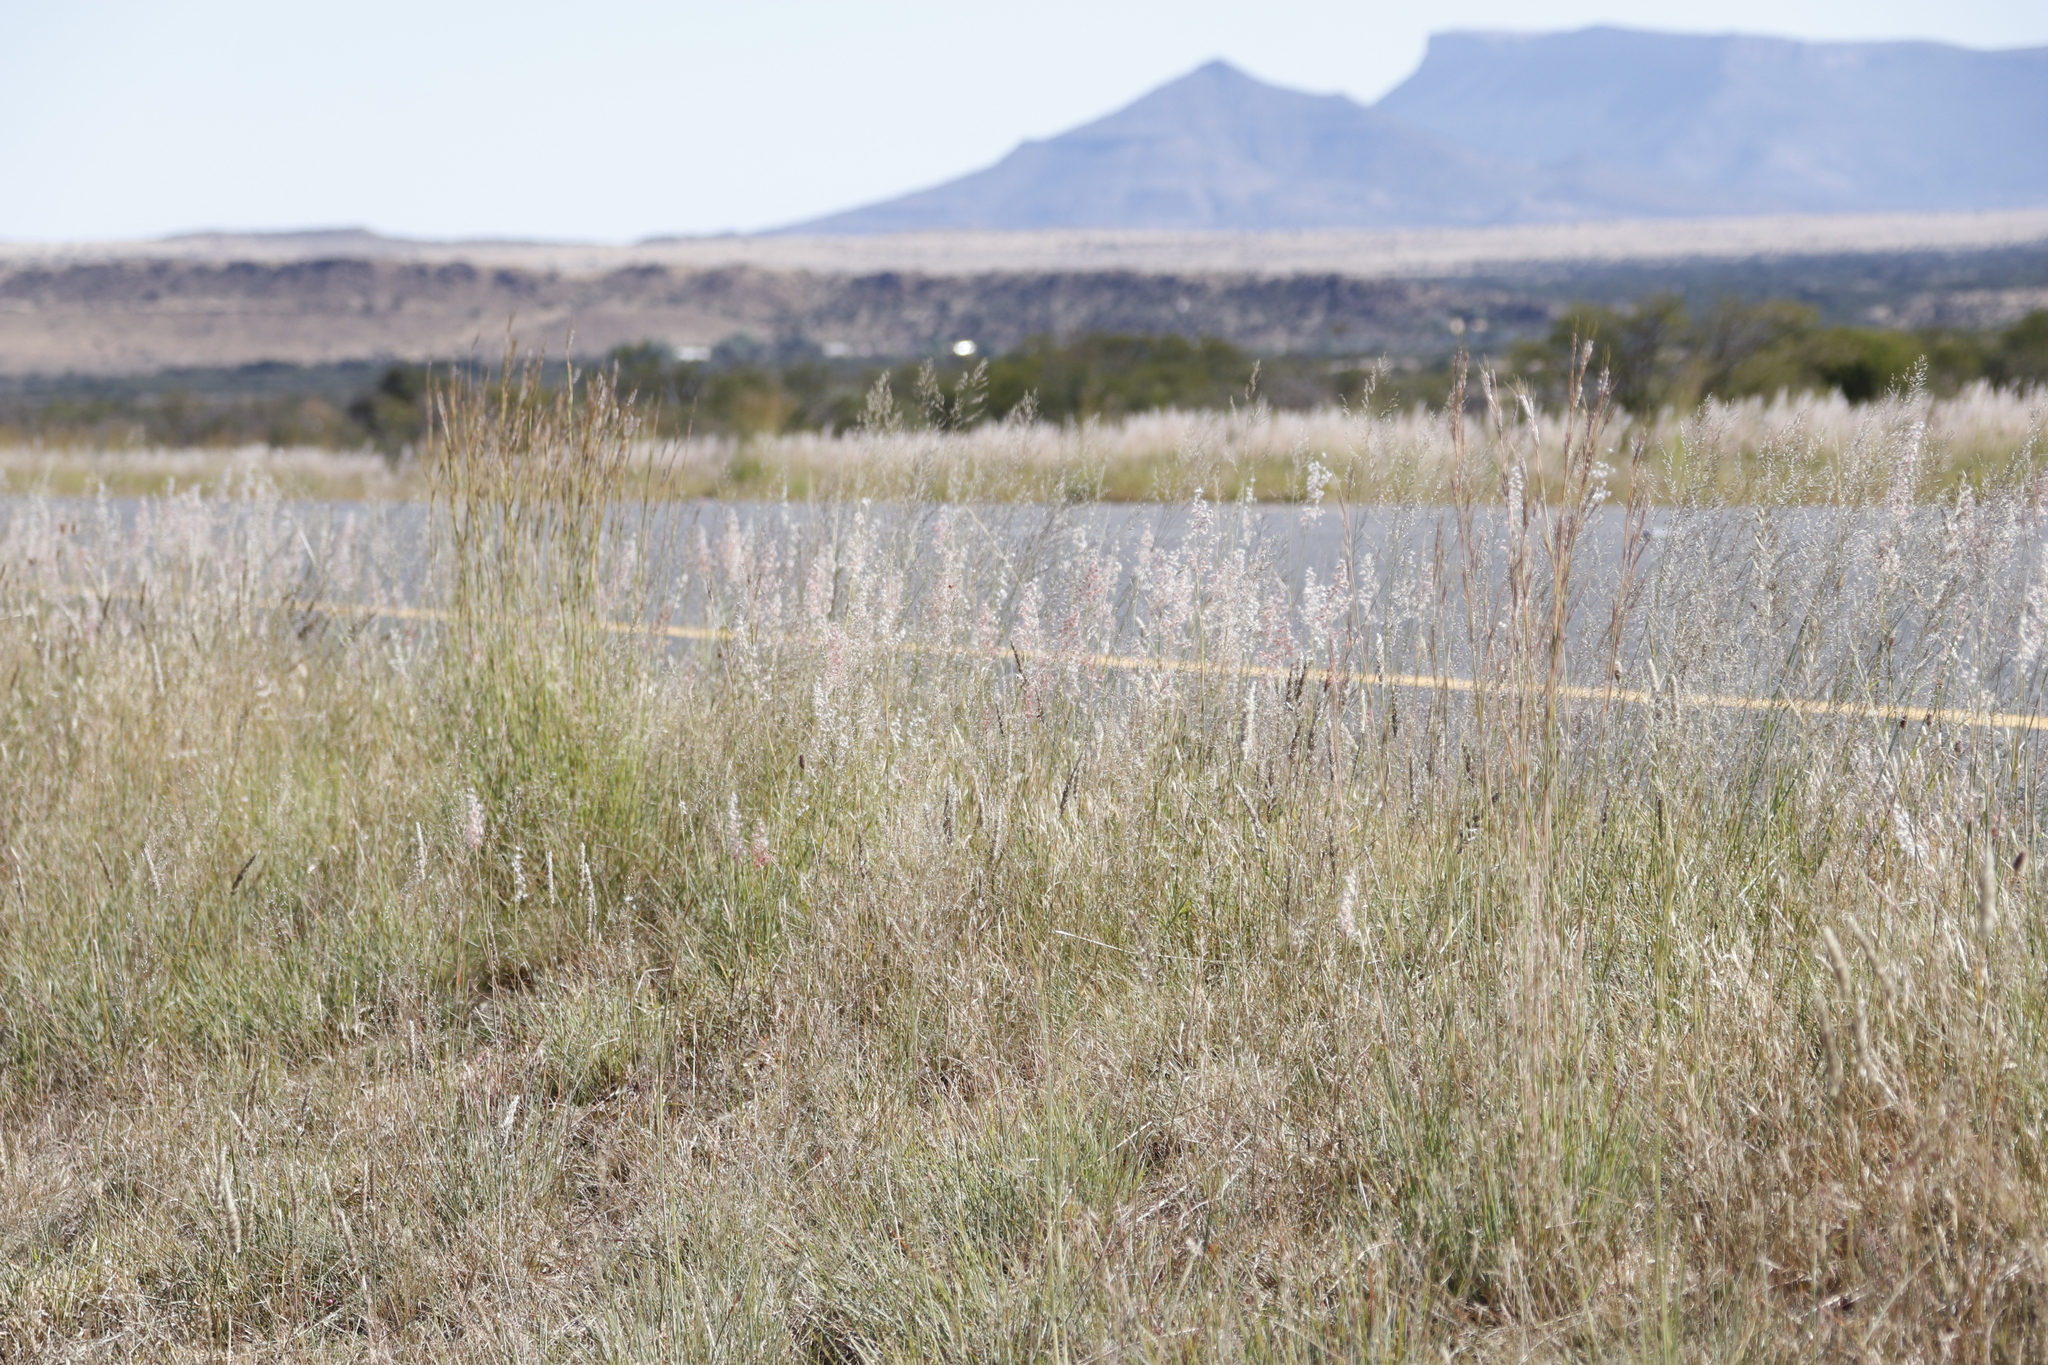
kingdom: Plantae
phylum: Tracheophyta
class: Liliopsida
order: Poales
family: Poaceae
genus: Hyparrhenia
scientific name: Hyparrhenia hirta
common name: Thatching grass
